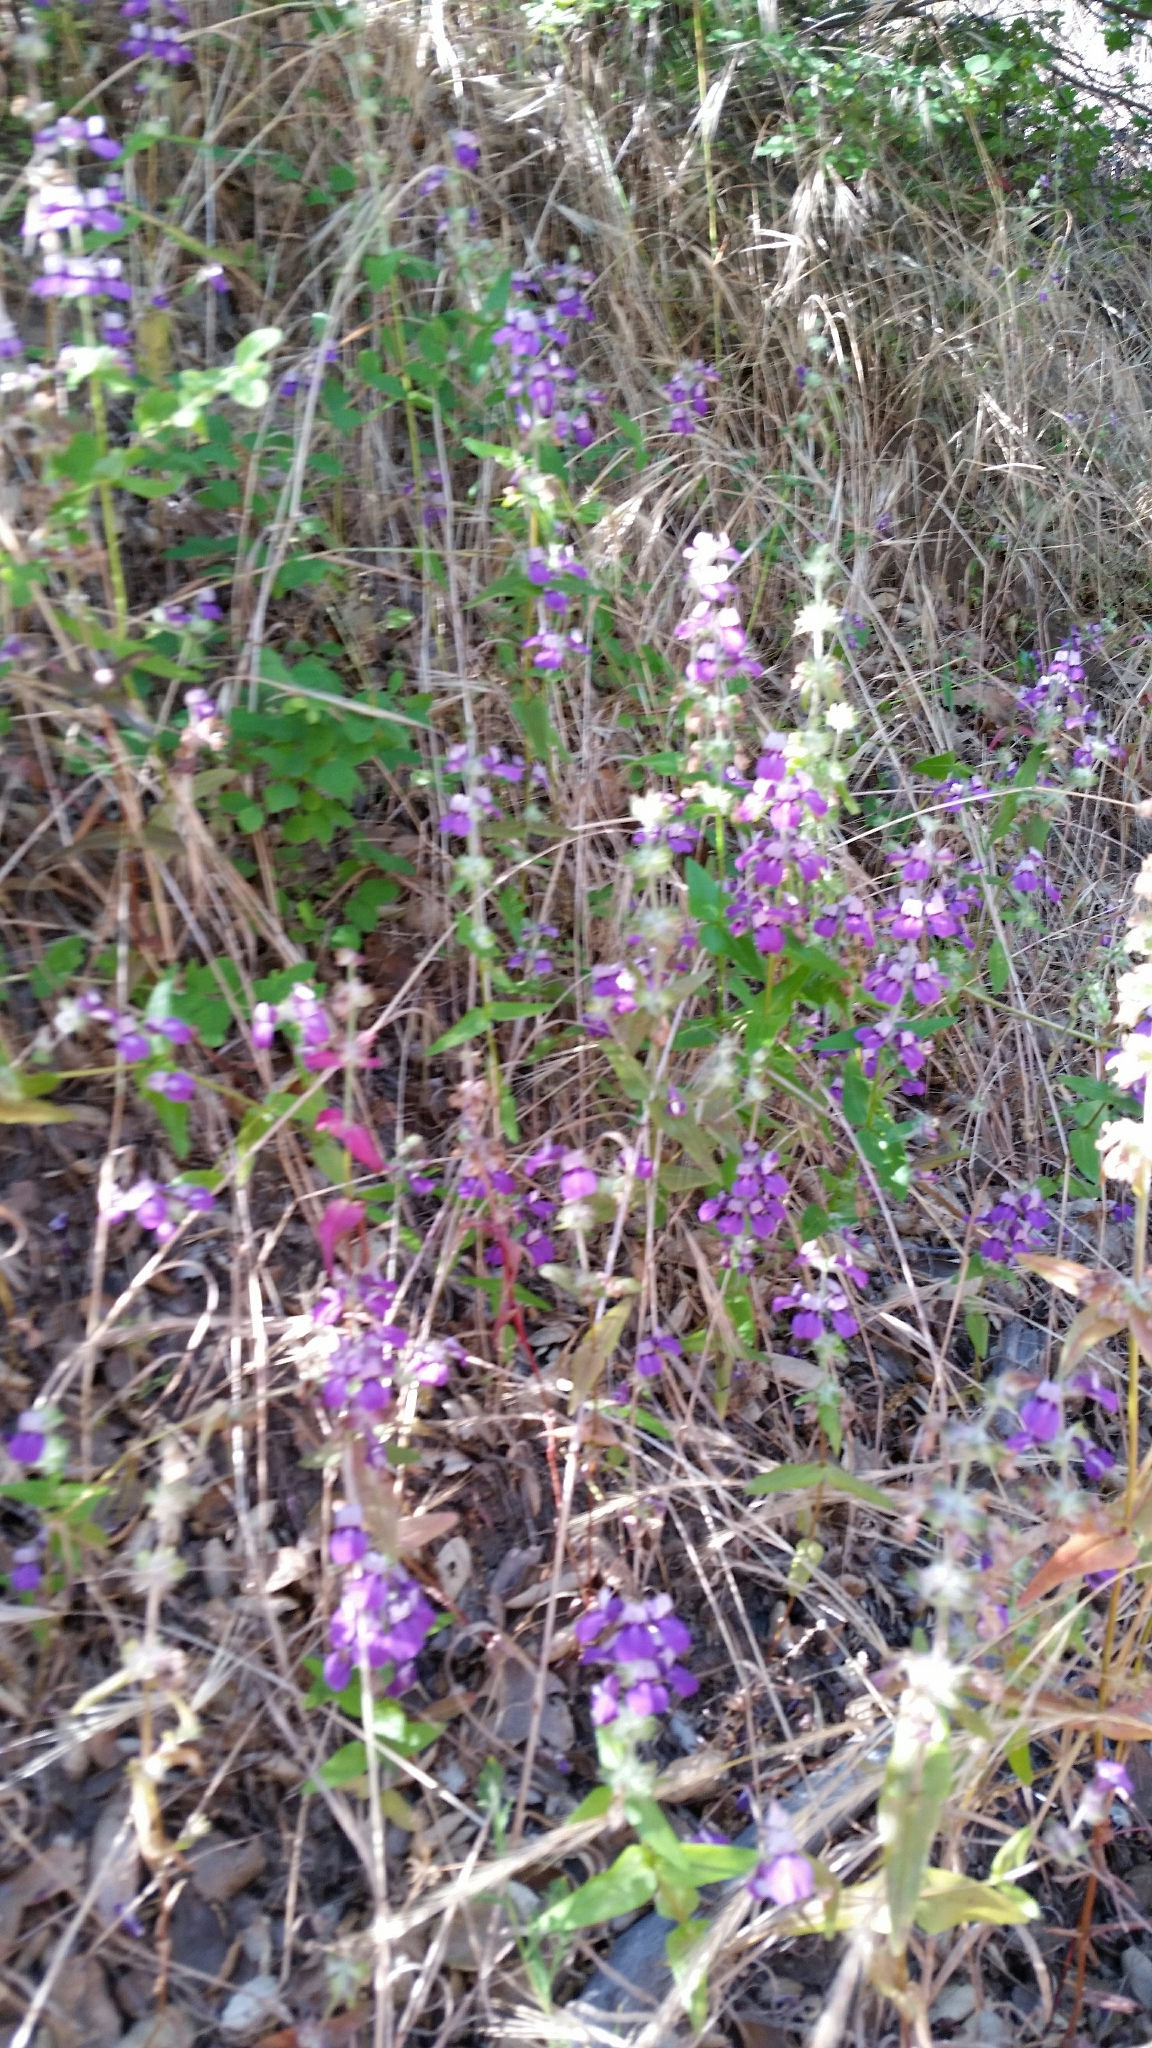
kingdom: Plantae
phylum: Tracheophyta
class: Magnoliopsida
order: Lamiales
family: Plantaginaceae
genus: Collinsia
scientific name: Collinsia heterophylla
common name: Chinese-houses
